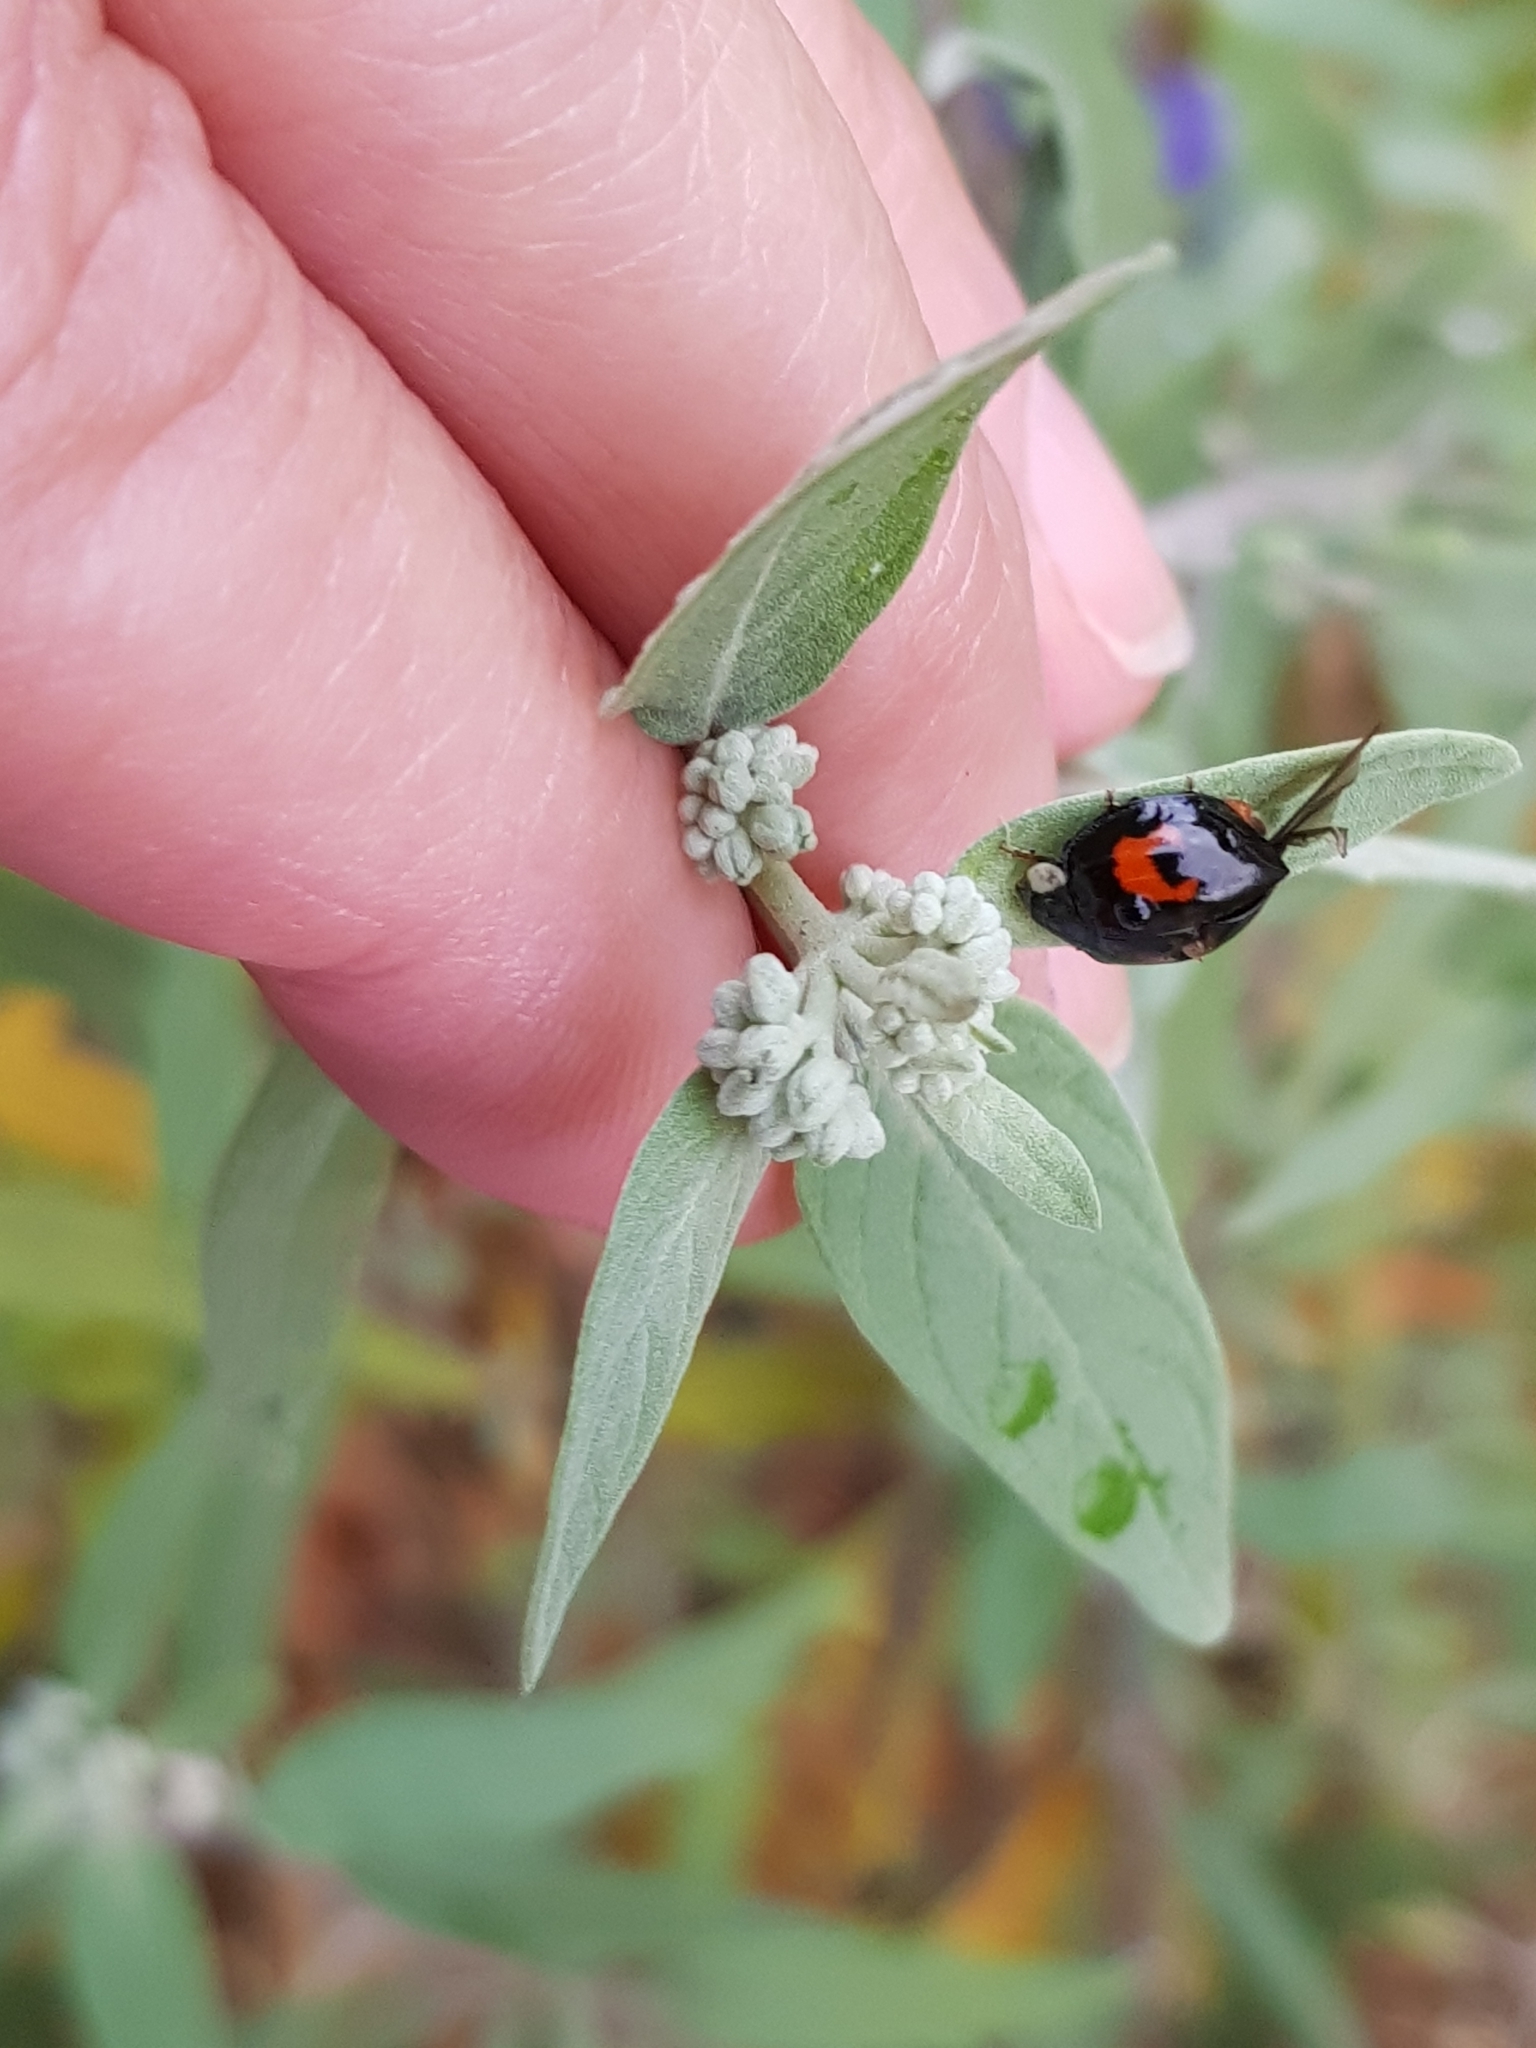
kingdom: Animalia
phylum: Arthropoda
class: Insecta
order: Coleoptera
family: Coccinellidae
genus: Harmonia
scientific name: Harmonia axyridis
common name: Harlequin ladybird
